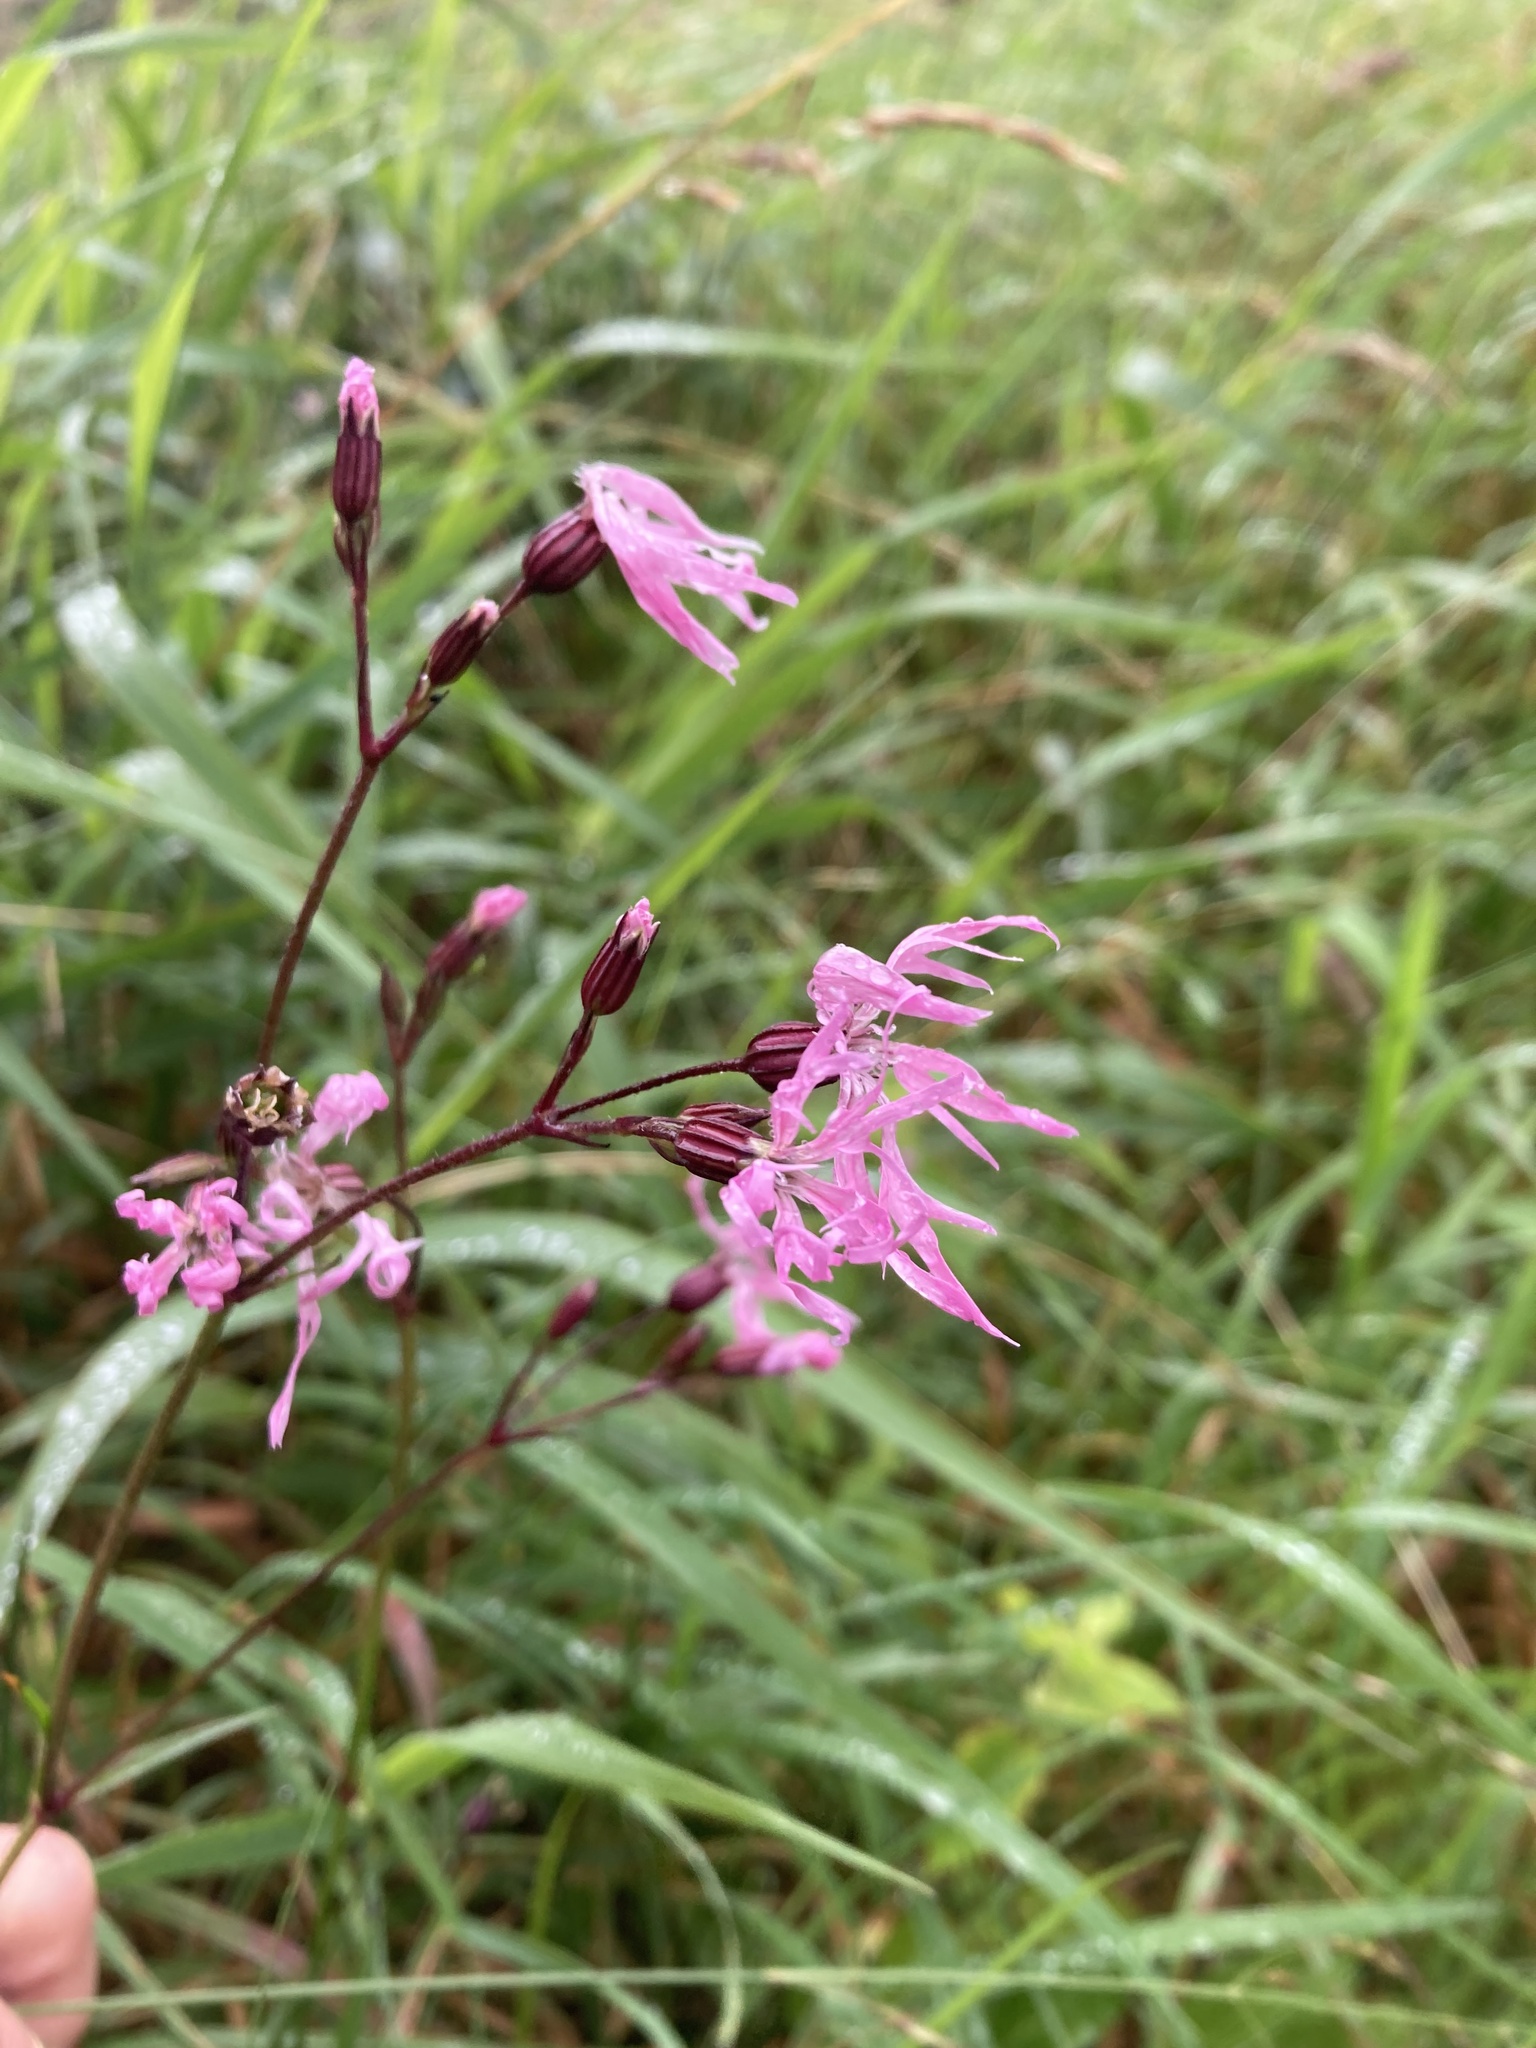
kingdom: Plantae
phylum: Tracheophyta
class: Magnoliopsida
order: Caryophyllales
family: Caryophyllaceae
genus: Silene
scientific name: Silene flos-cuculi
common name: Ragged-robin
